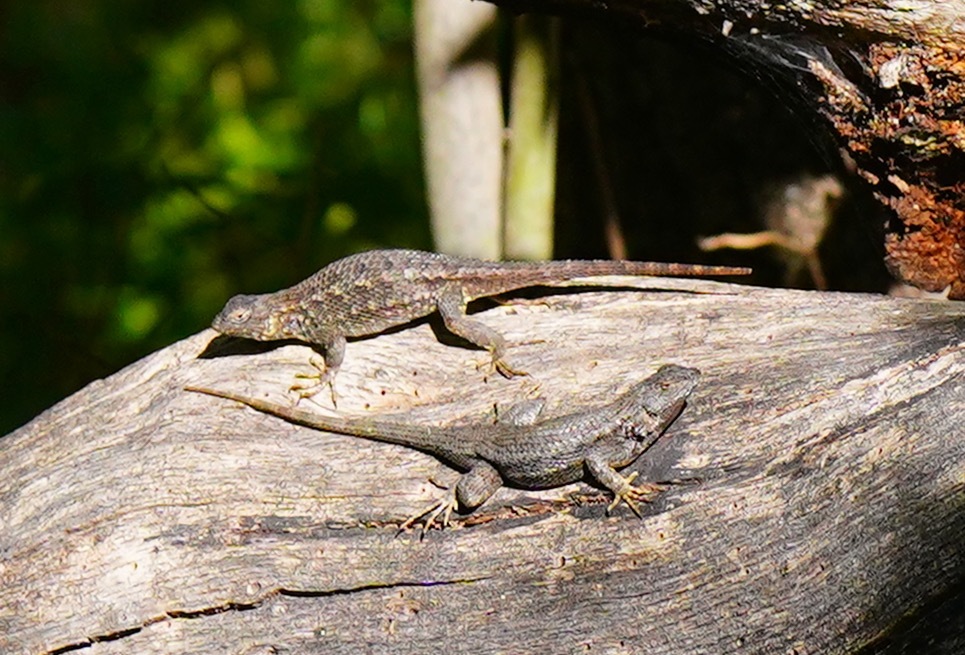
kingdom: Animalia
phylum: Chordata
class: Squamata
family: Phrynosomatidae
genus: Sceloporus
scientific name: Sceloporus occidentalis
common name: Western fence lizard
